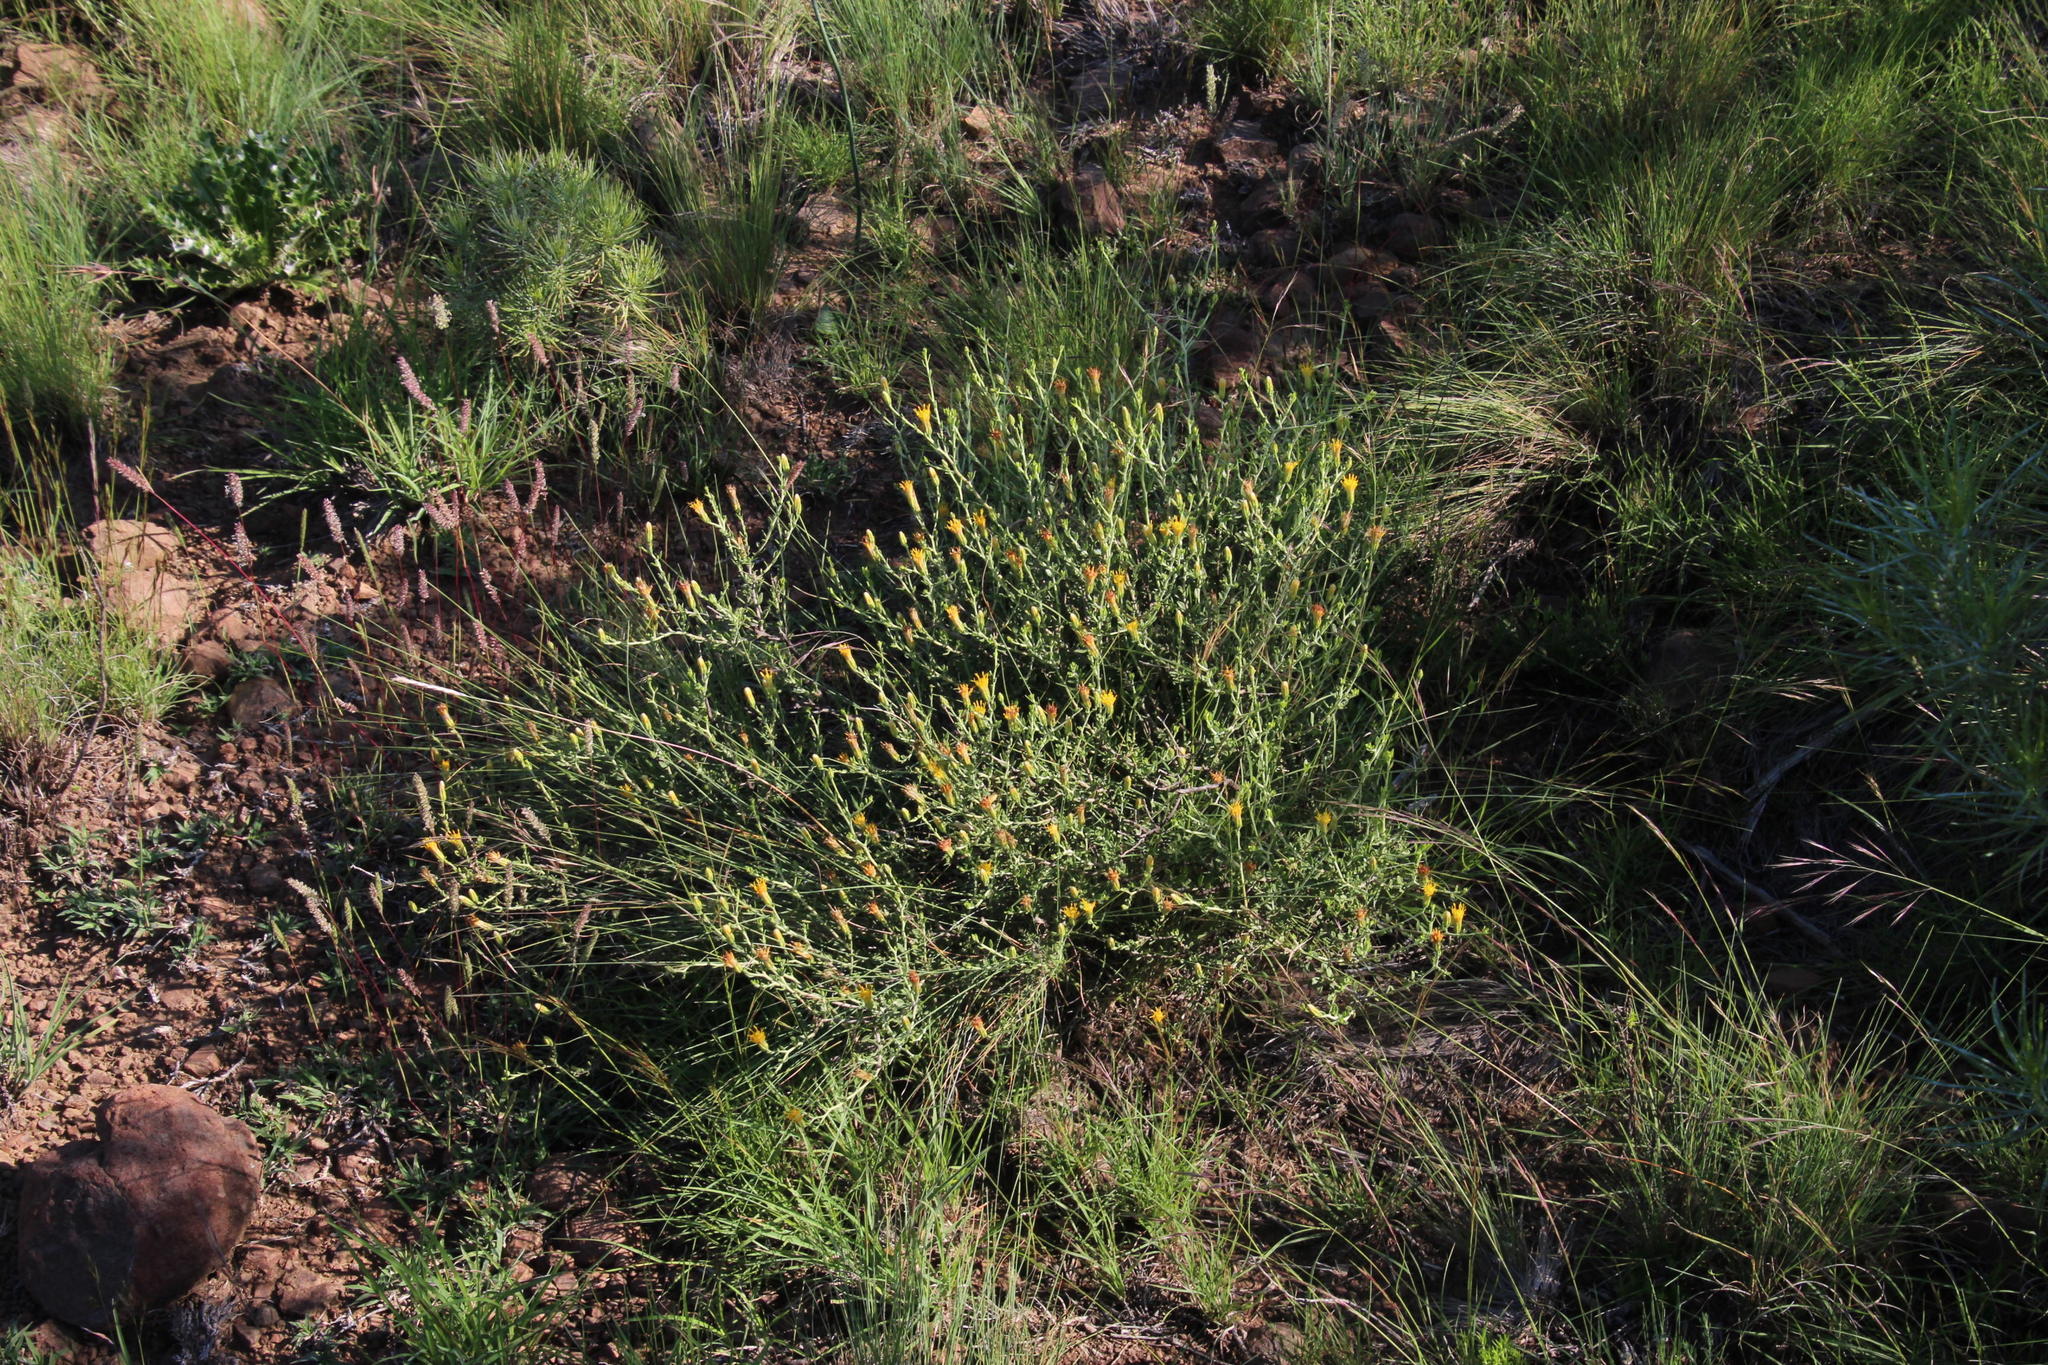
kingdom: Plantae
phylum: Tracheophyta
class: Magnoliopsida
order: Asterales
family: Asteraceae
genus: Pegolettia
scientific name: Pegolettia retrofracta
